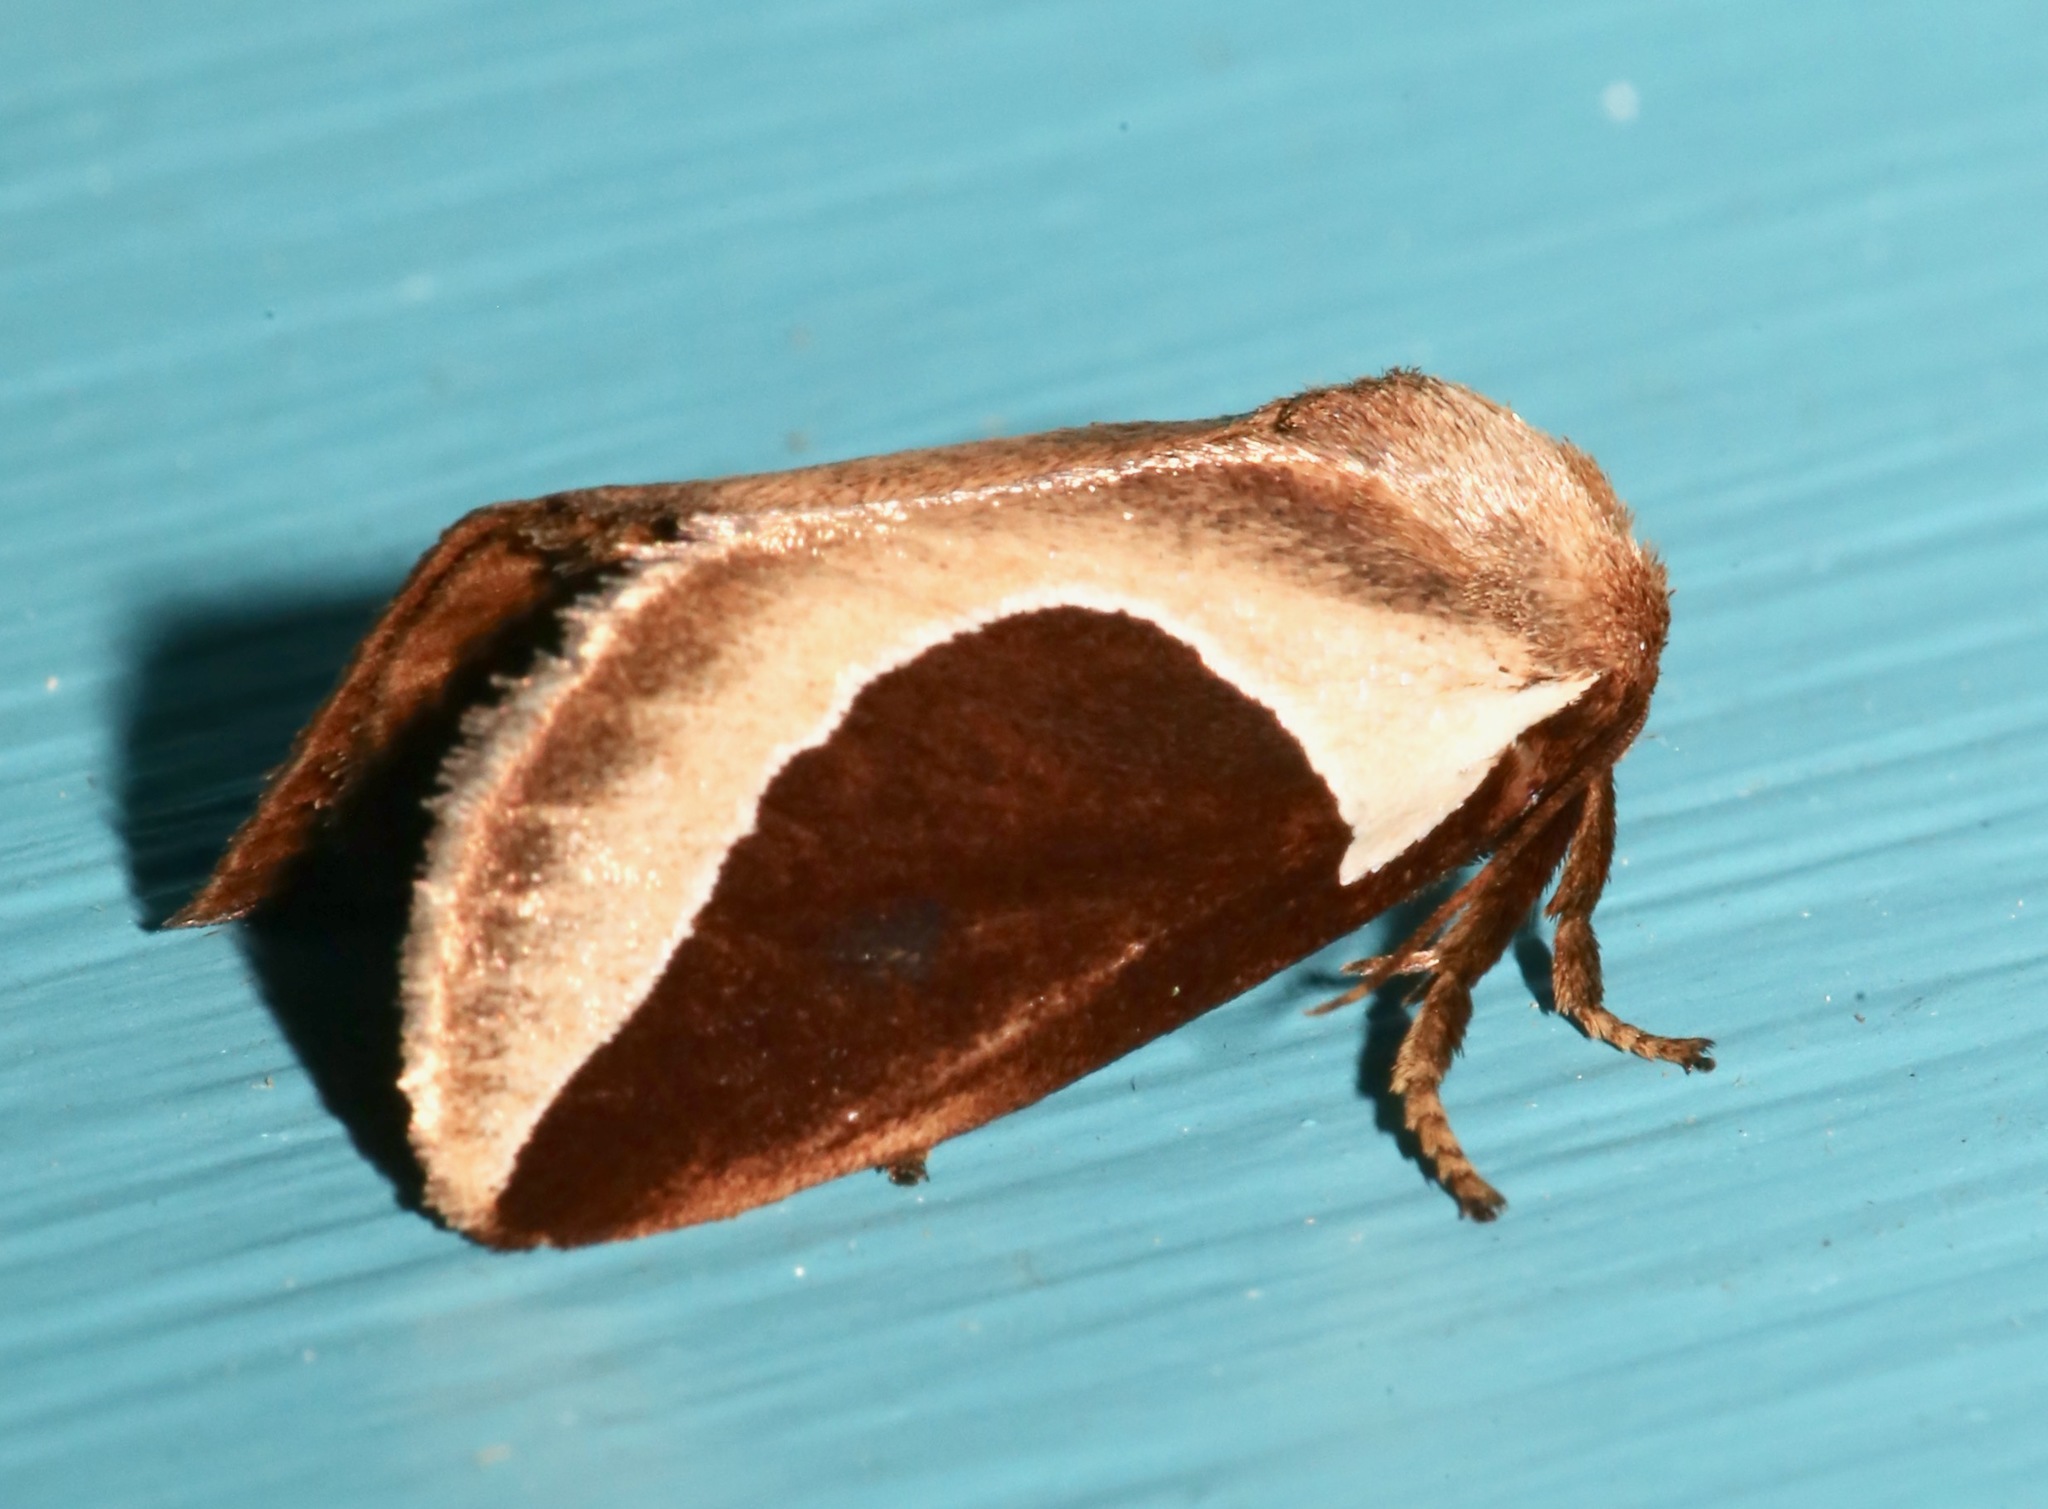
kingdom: Animalia
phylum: Arthropoda
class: Insecta
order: Lepidoptera
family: Limacodidae
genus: Prolimacodes
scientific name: Prolimacodes badia
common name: Skiff moth
